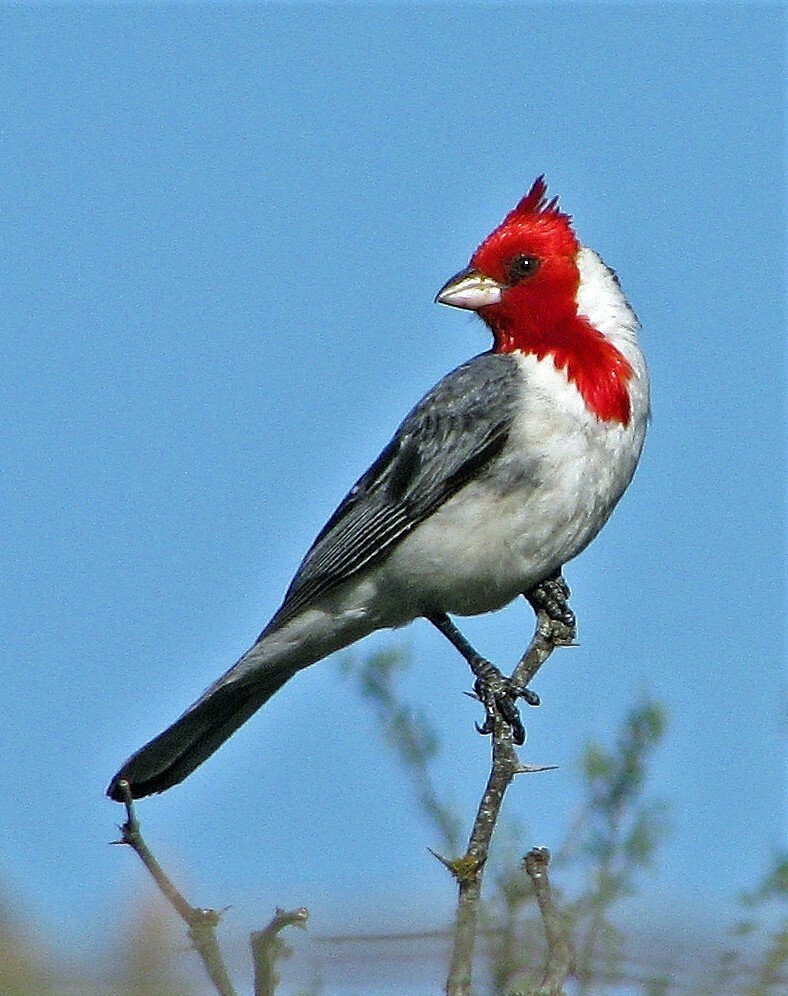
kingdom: Animalia
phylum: Chordata
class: Aves
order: Passeriformes
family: Thraupidae
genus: Paroaria
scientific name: Paroaria coronata
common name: Red-crested cardinal
